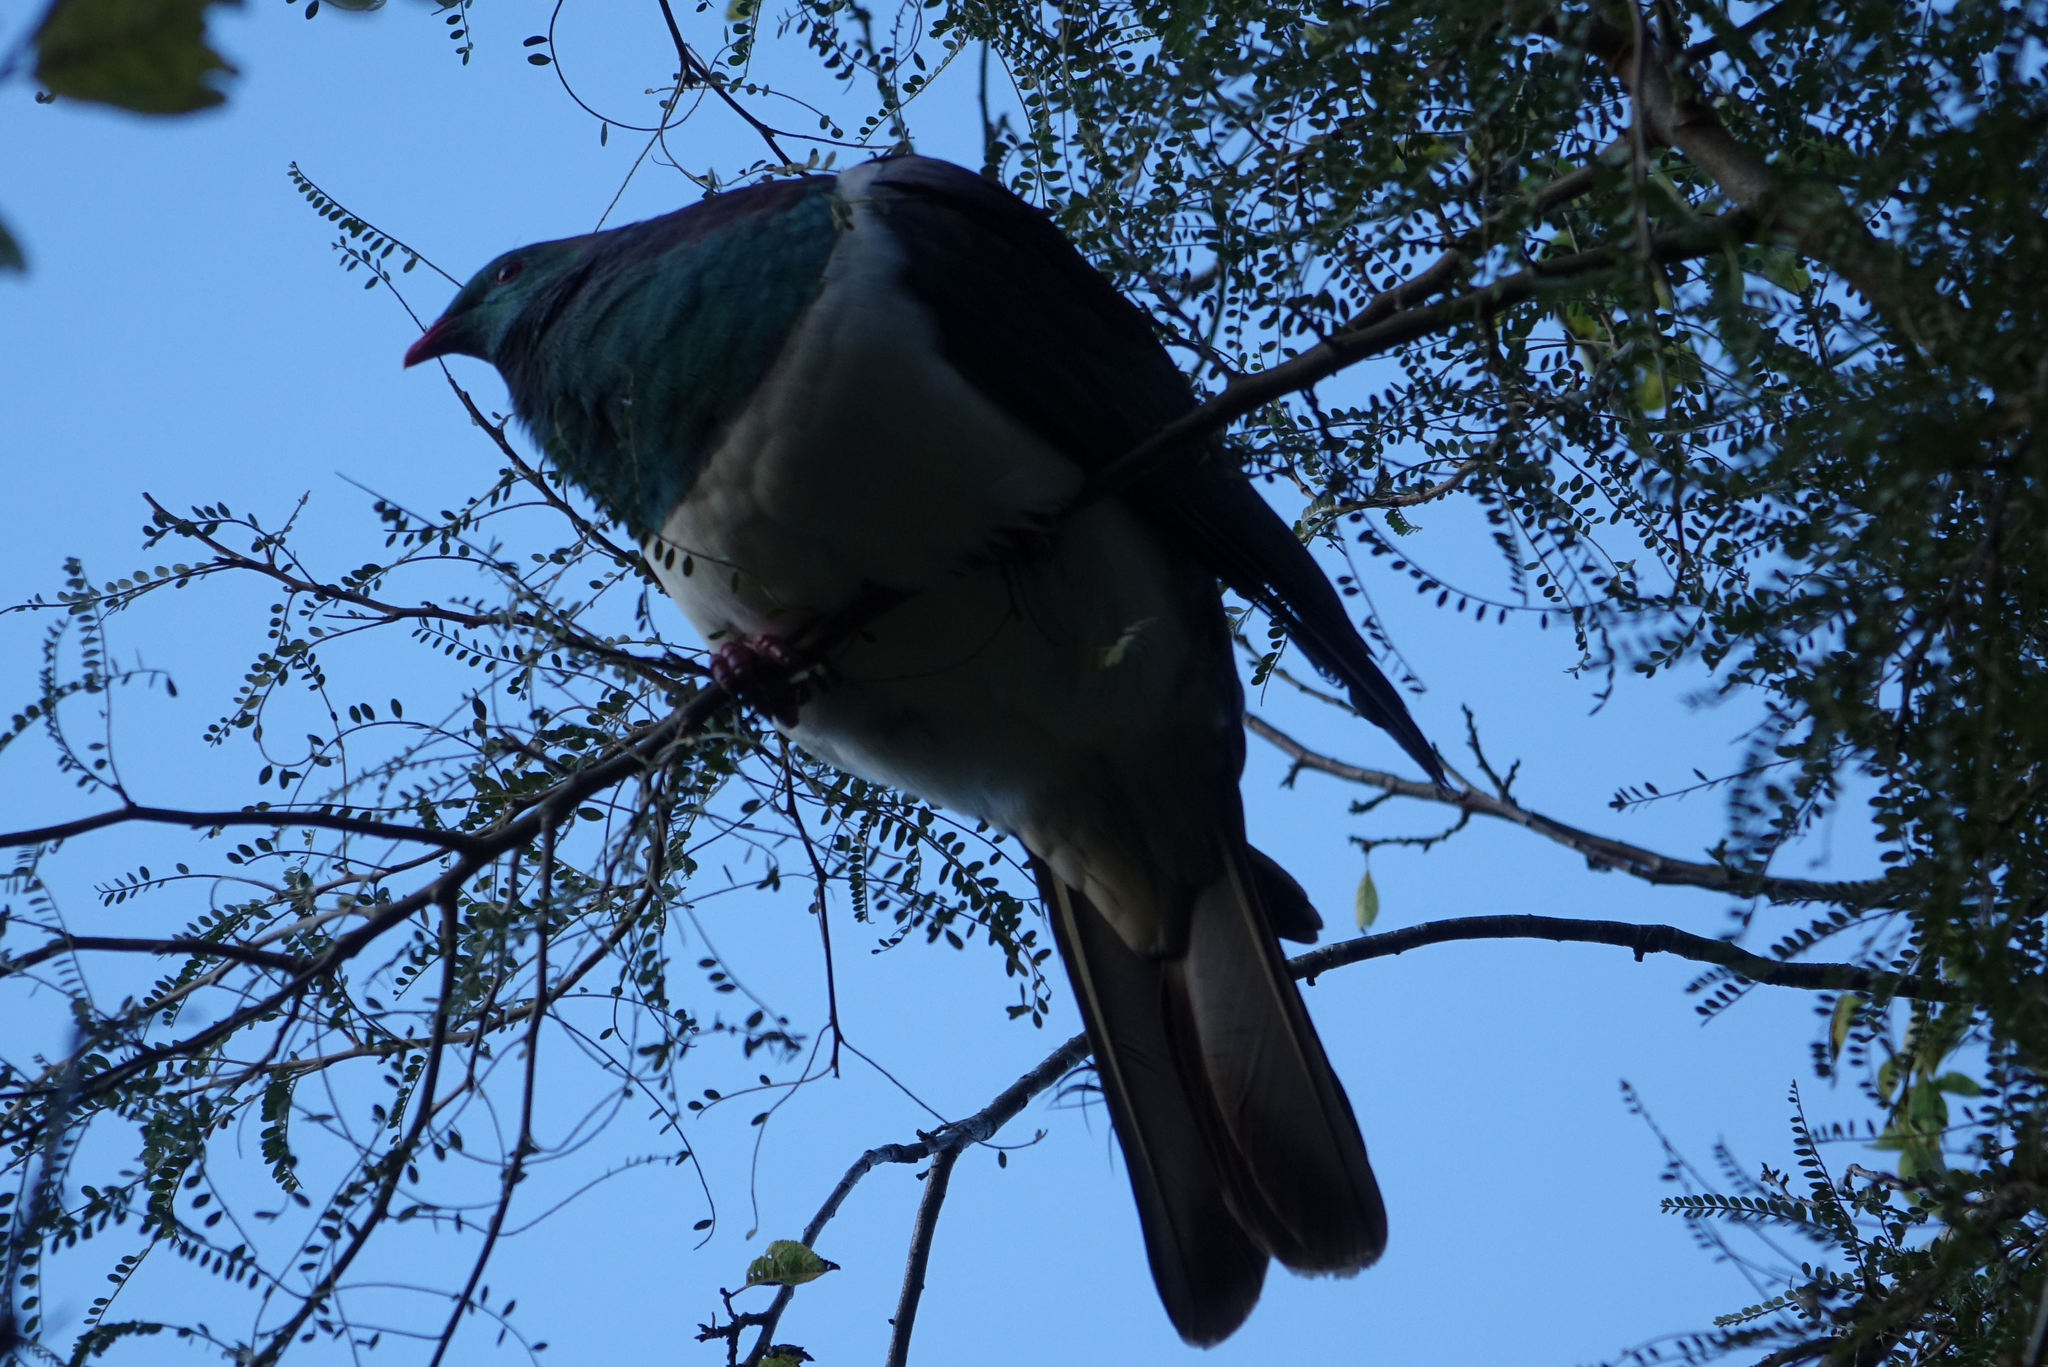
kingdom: Animalia
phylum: Chordata
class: Aves
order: Columbiformes
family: Columbidae
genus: Hemiphaga
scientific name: Hemiphaga novaeseelandiae
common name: New zealand pigeon
